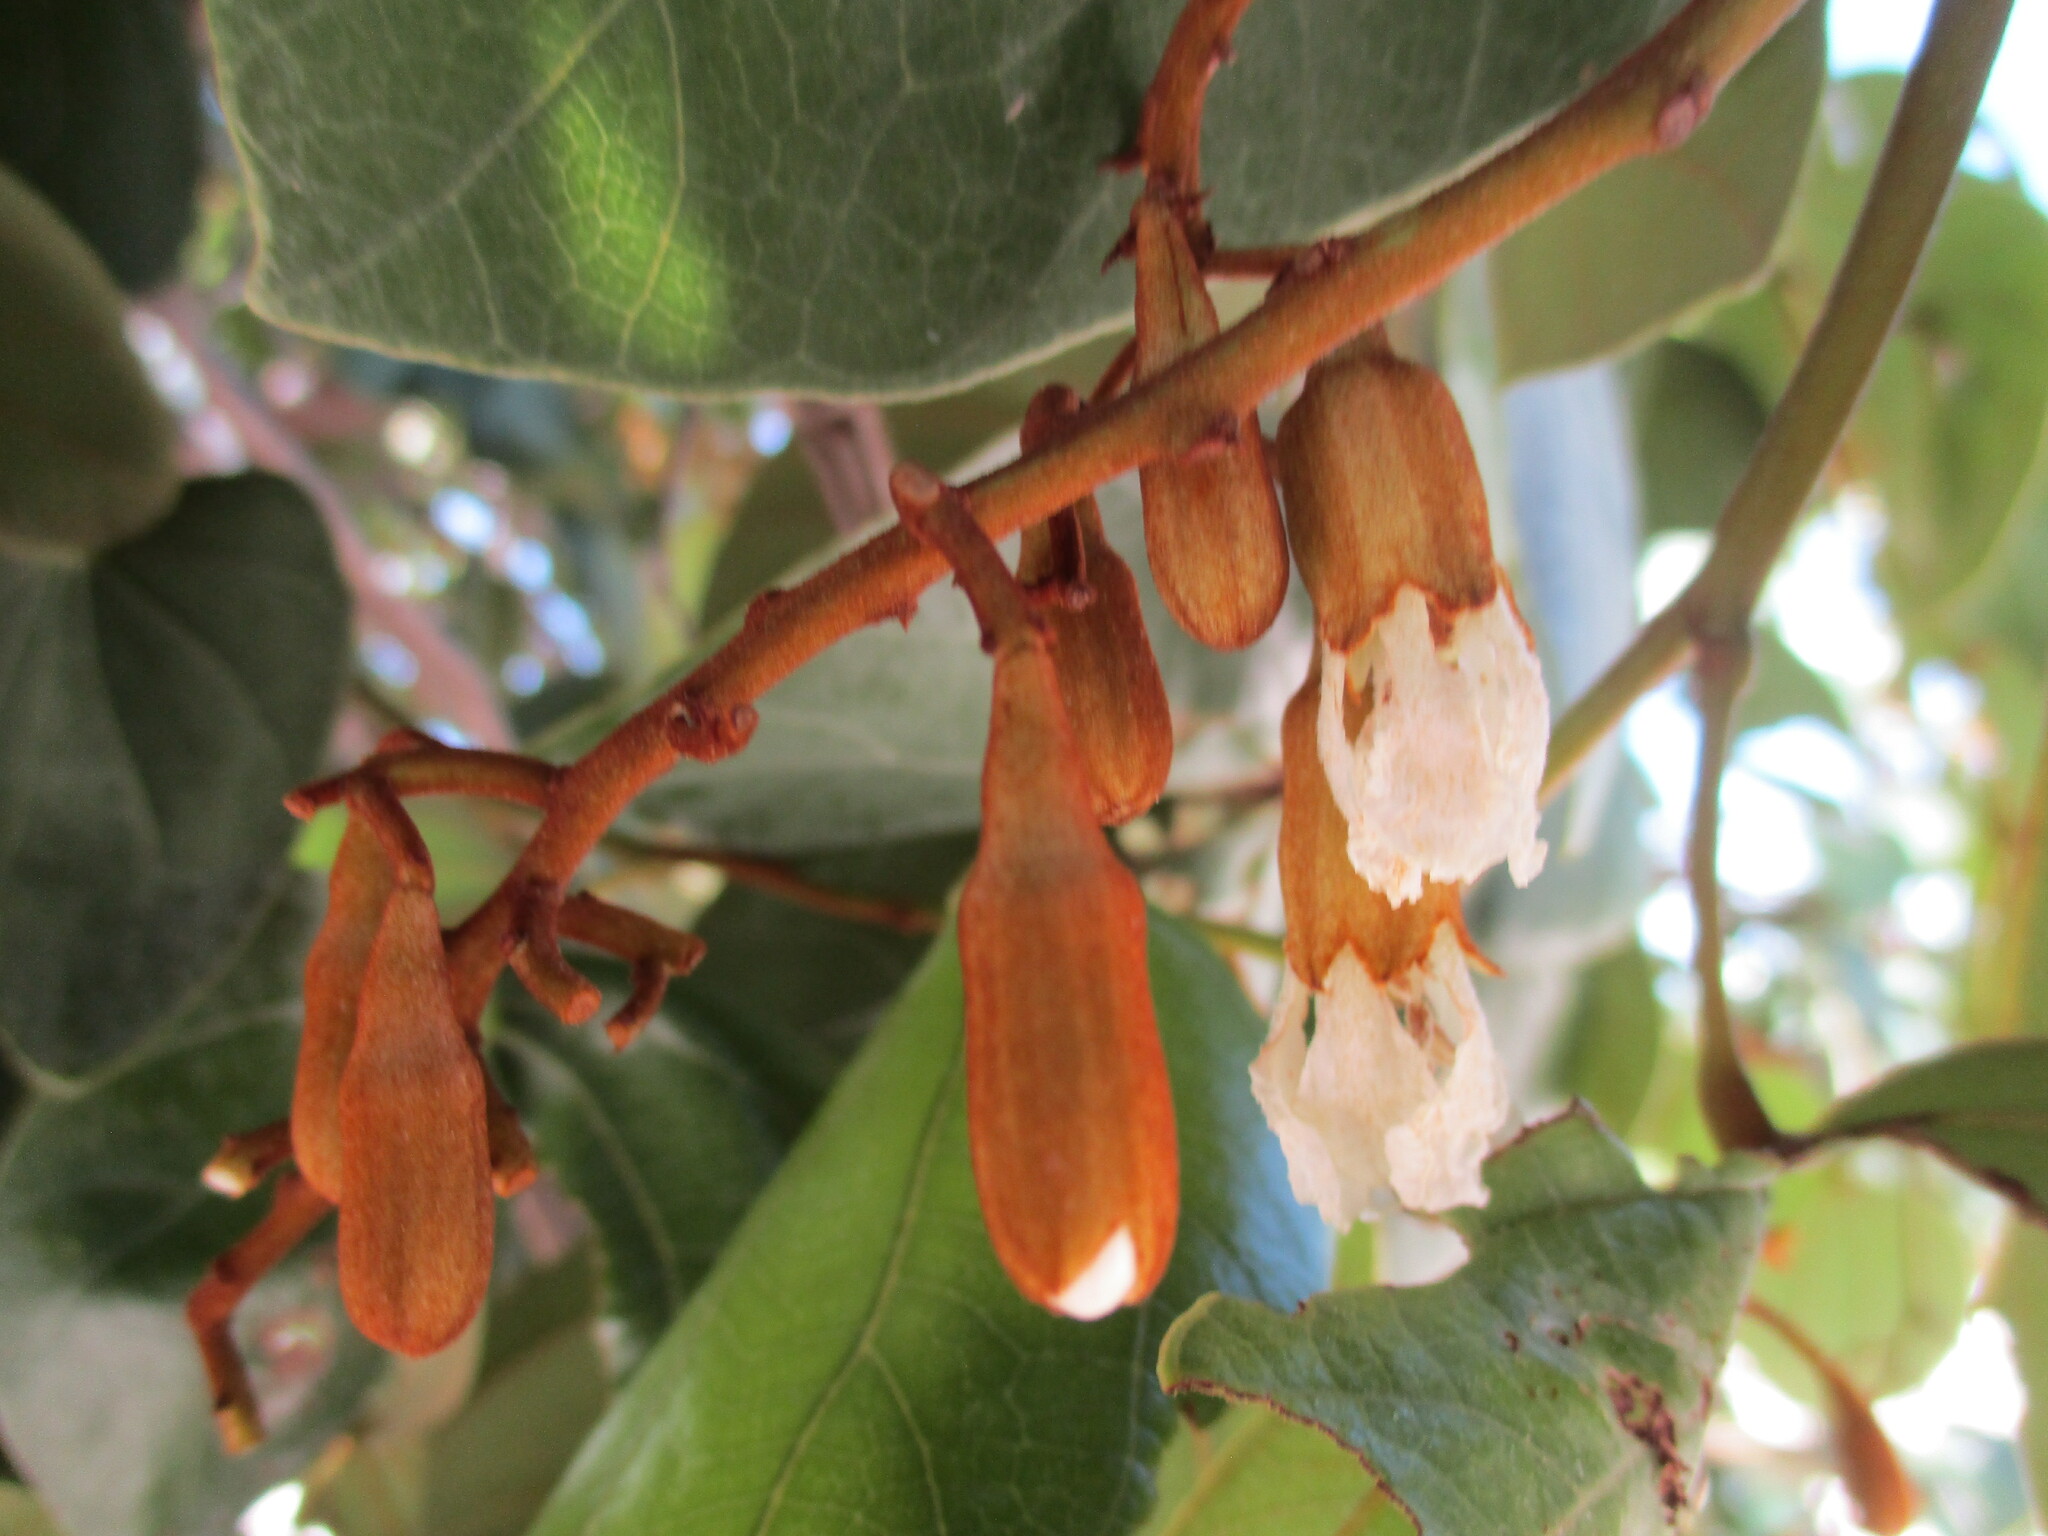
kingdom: Plantae
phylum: Tracheophyta
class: Magnoliopsida
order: Fabales
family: Fabaceae
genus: Piliostigma
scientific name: Piliostigma thonningii
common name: Kao
